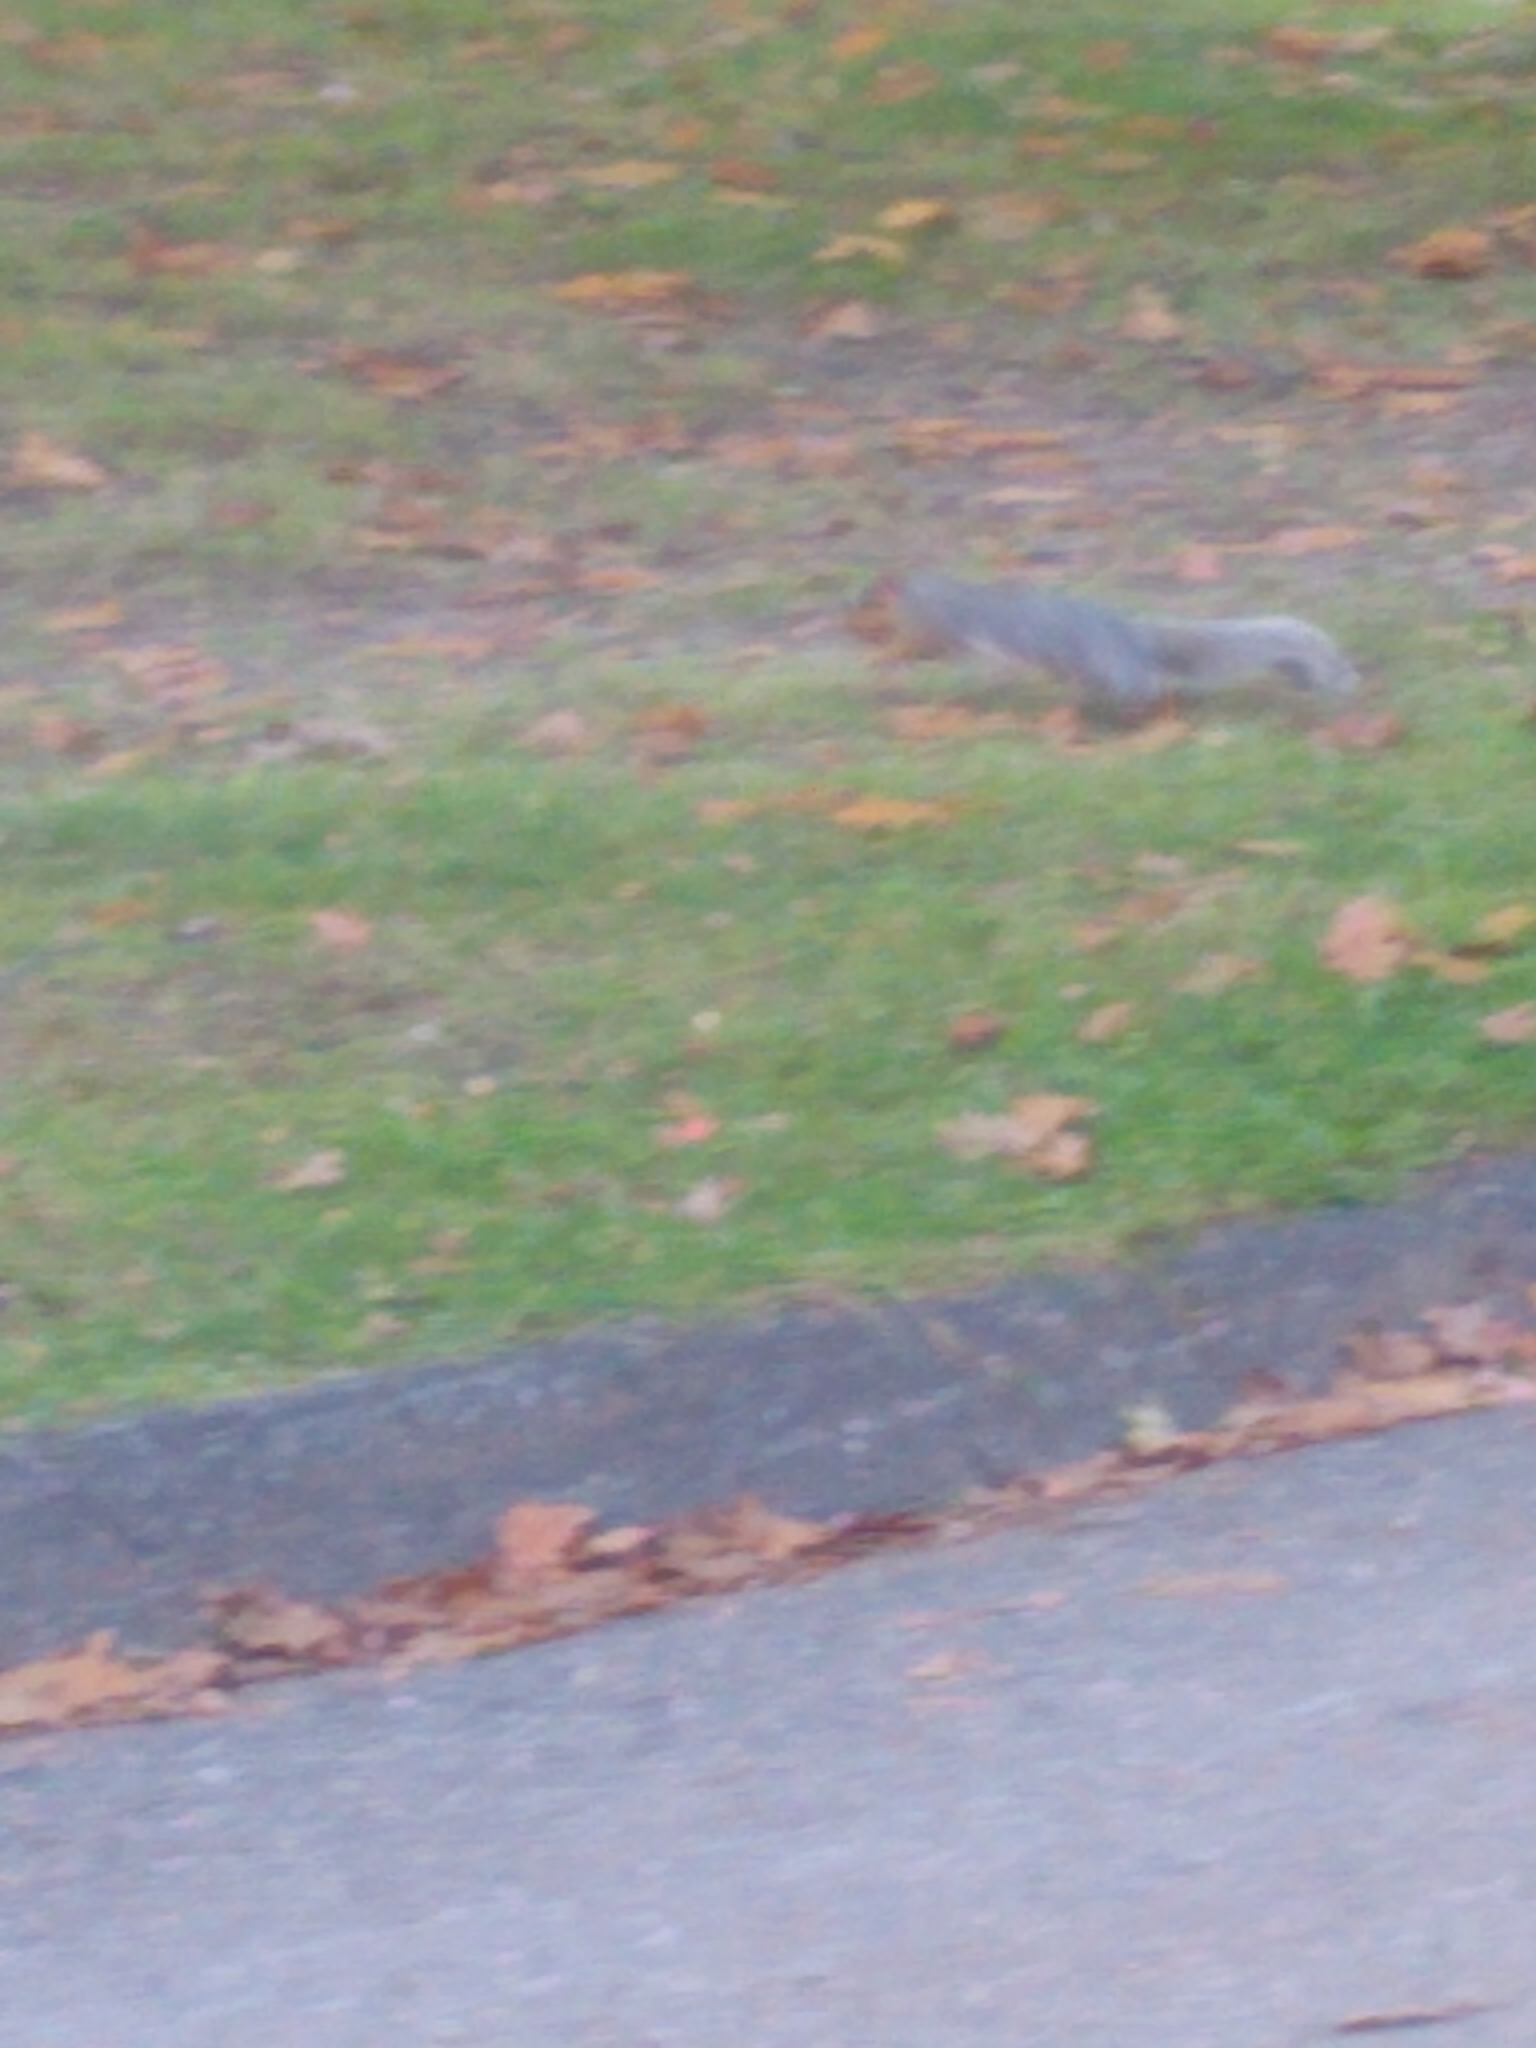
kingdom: Animalia
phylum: Chordata
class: Mammalia
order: Rodentia
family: Sciuridae
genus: Sciurus
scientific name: Sciurus carolinensis
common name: Eastern gray squirrel
